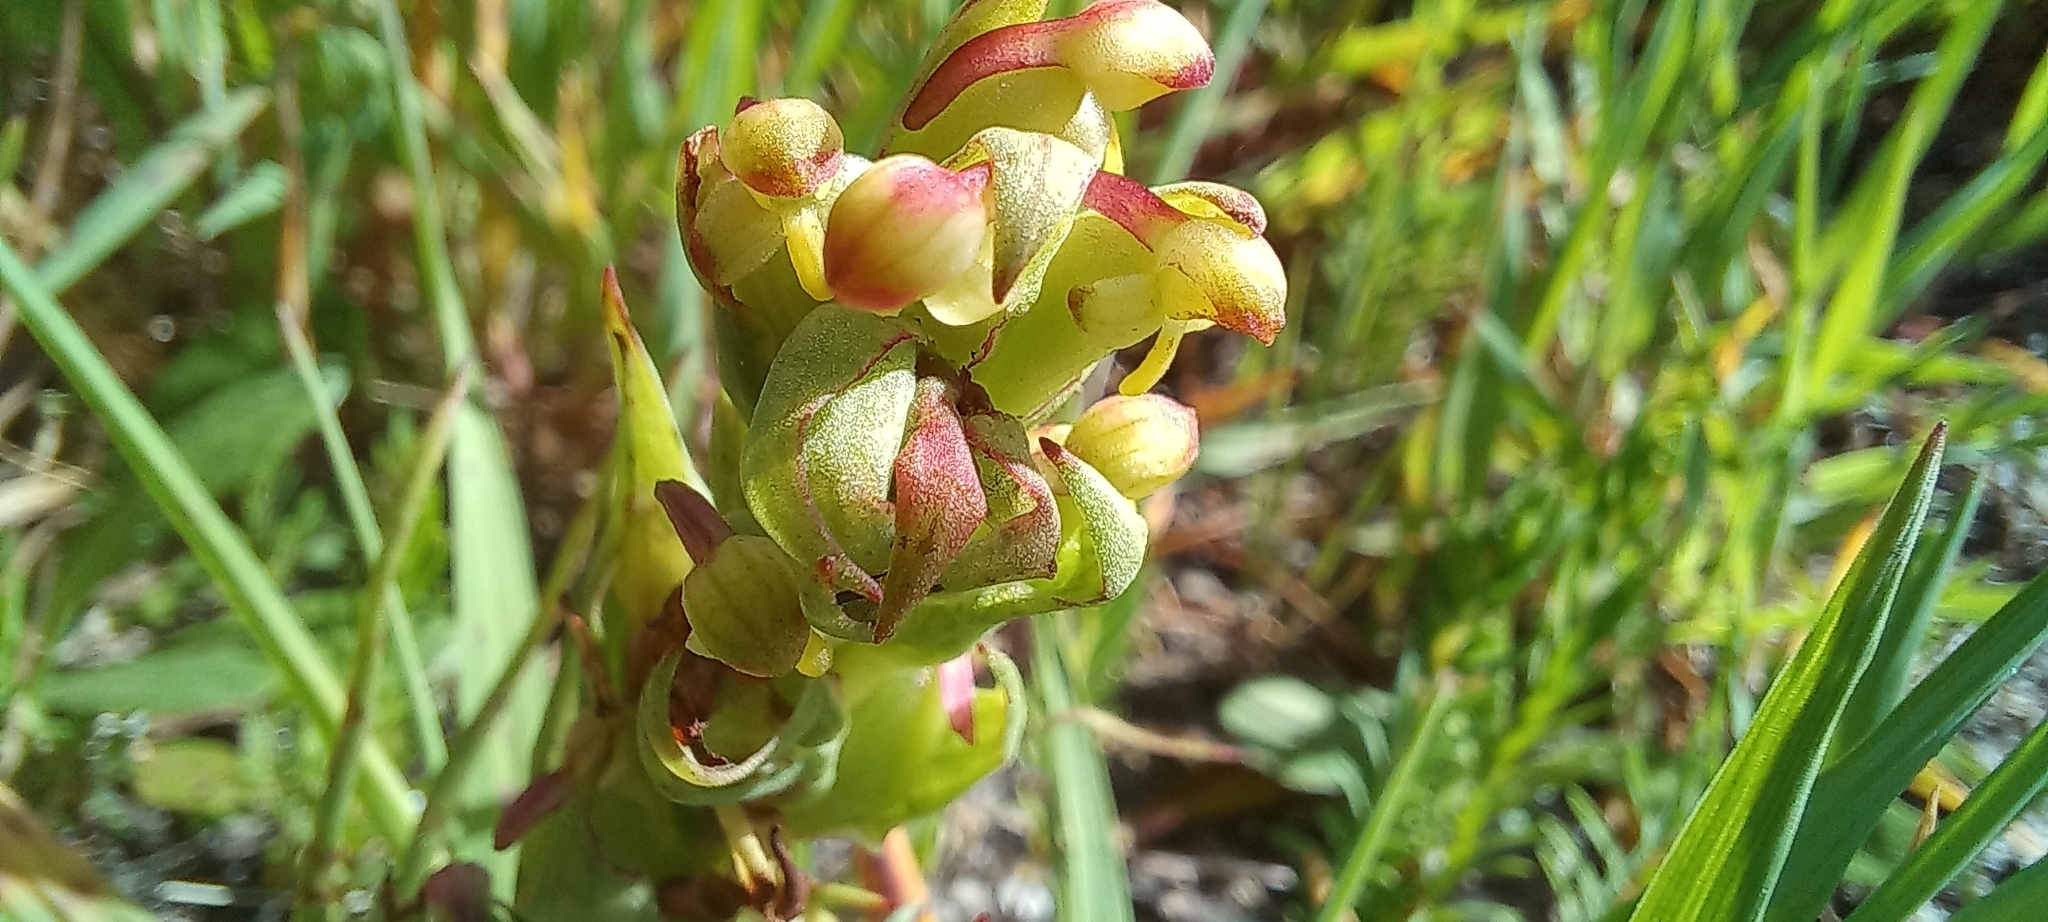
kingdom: Plantae
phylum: Tracheophyta
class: Liliopsida
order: Asparagales
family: Orchidaceae
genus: Disa
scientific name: Disa bracteata
